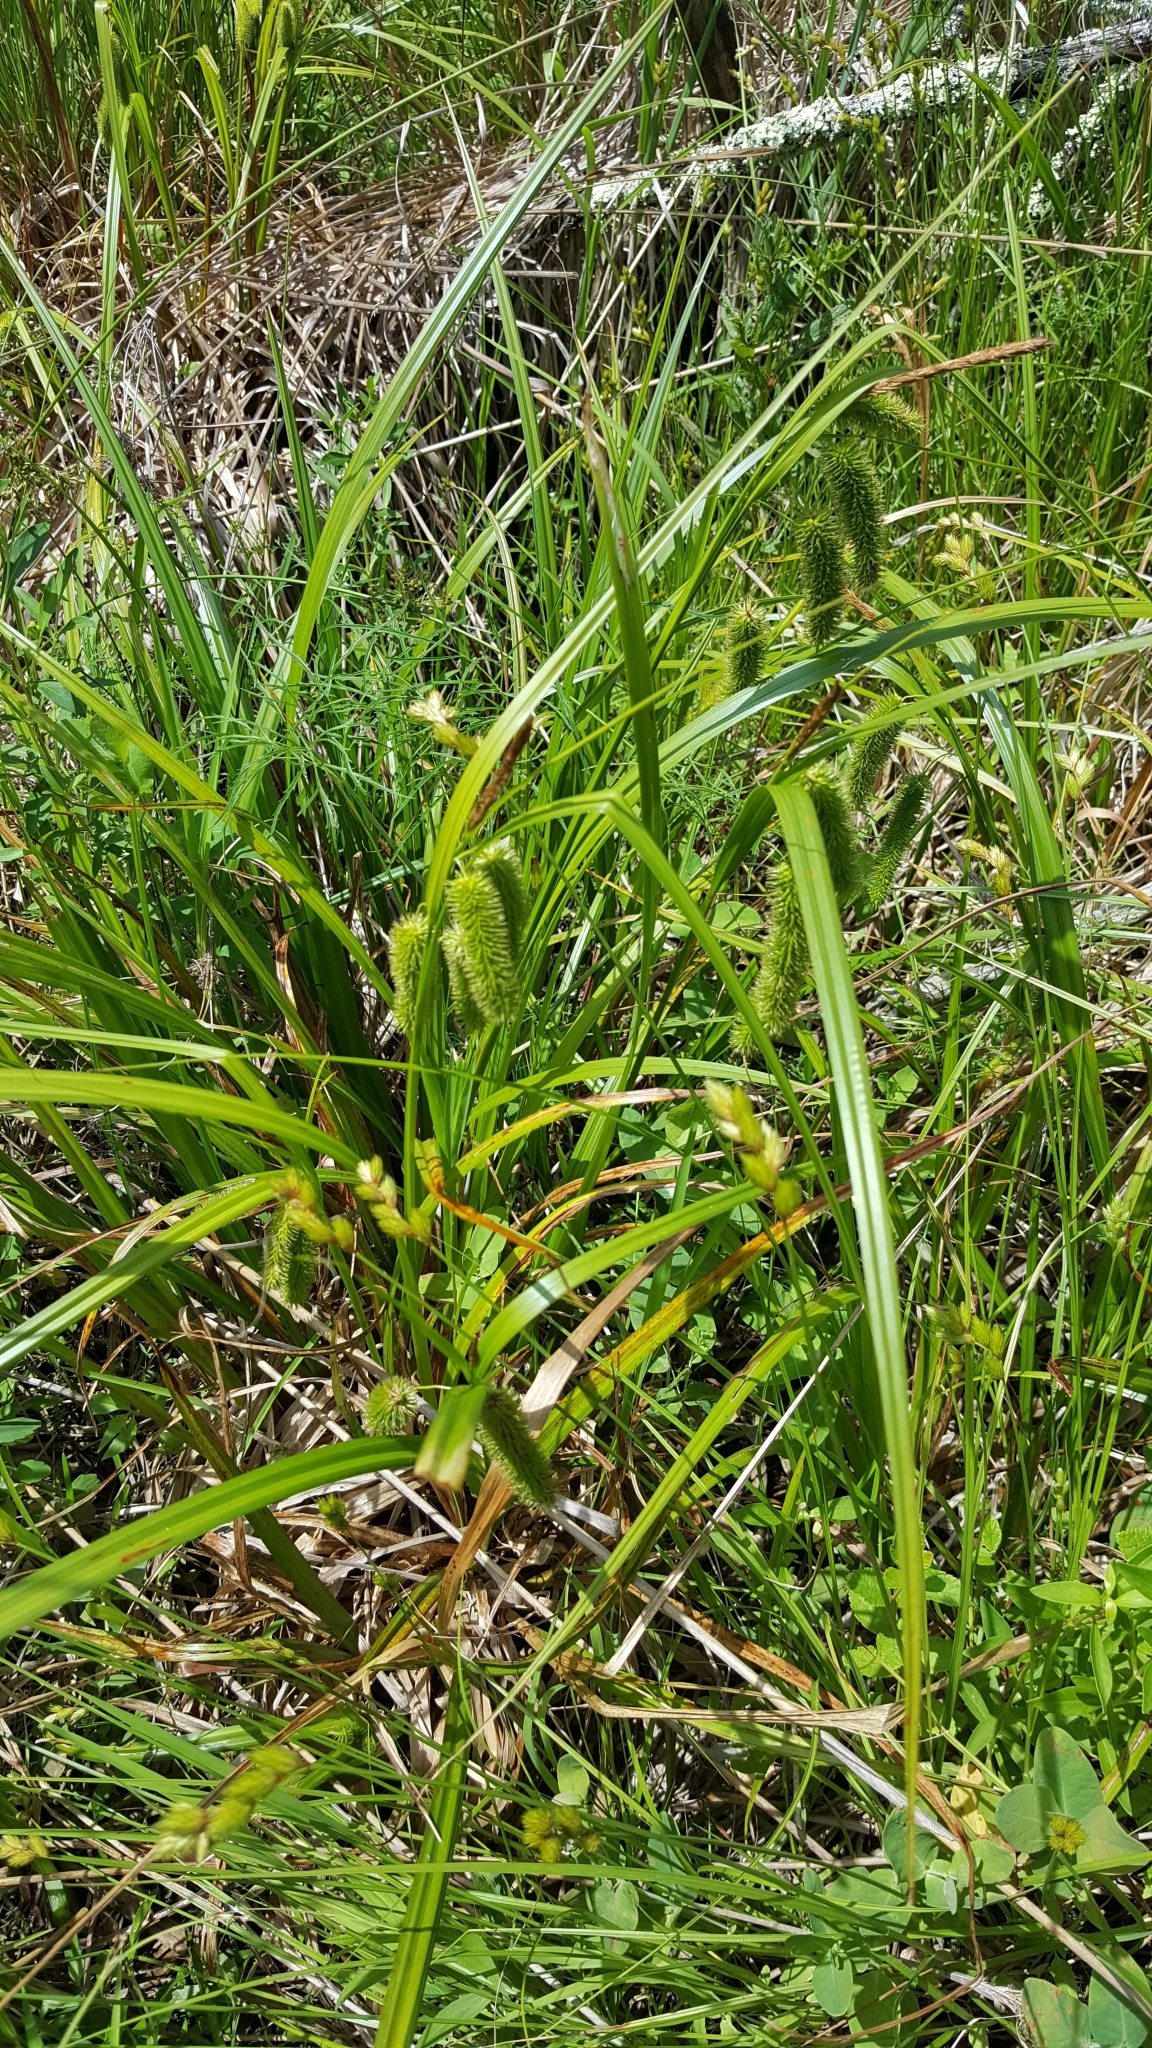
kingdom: Plantae
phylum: Tracheophyta
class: Liliopsida
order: Poales
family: Cyperaceae
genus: Carex
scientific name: Carex comosa
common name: Bristly sedge
